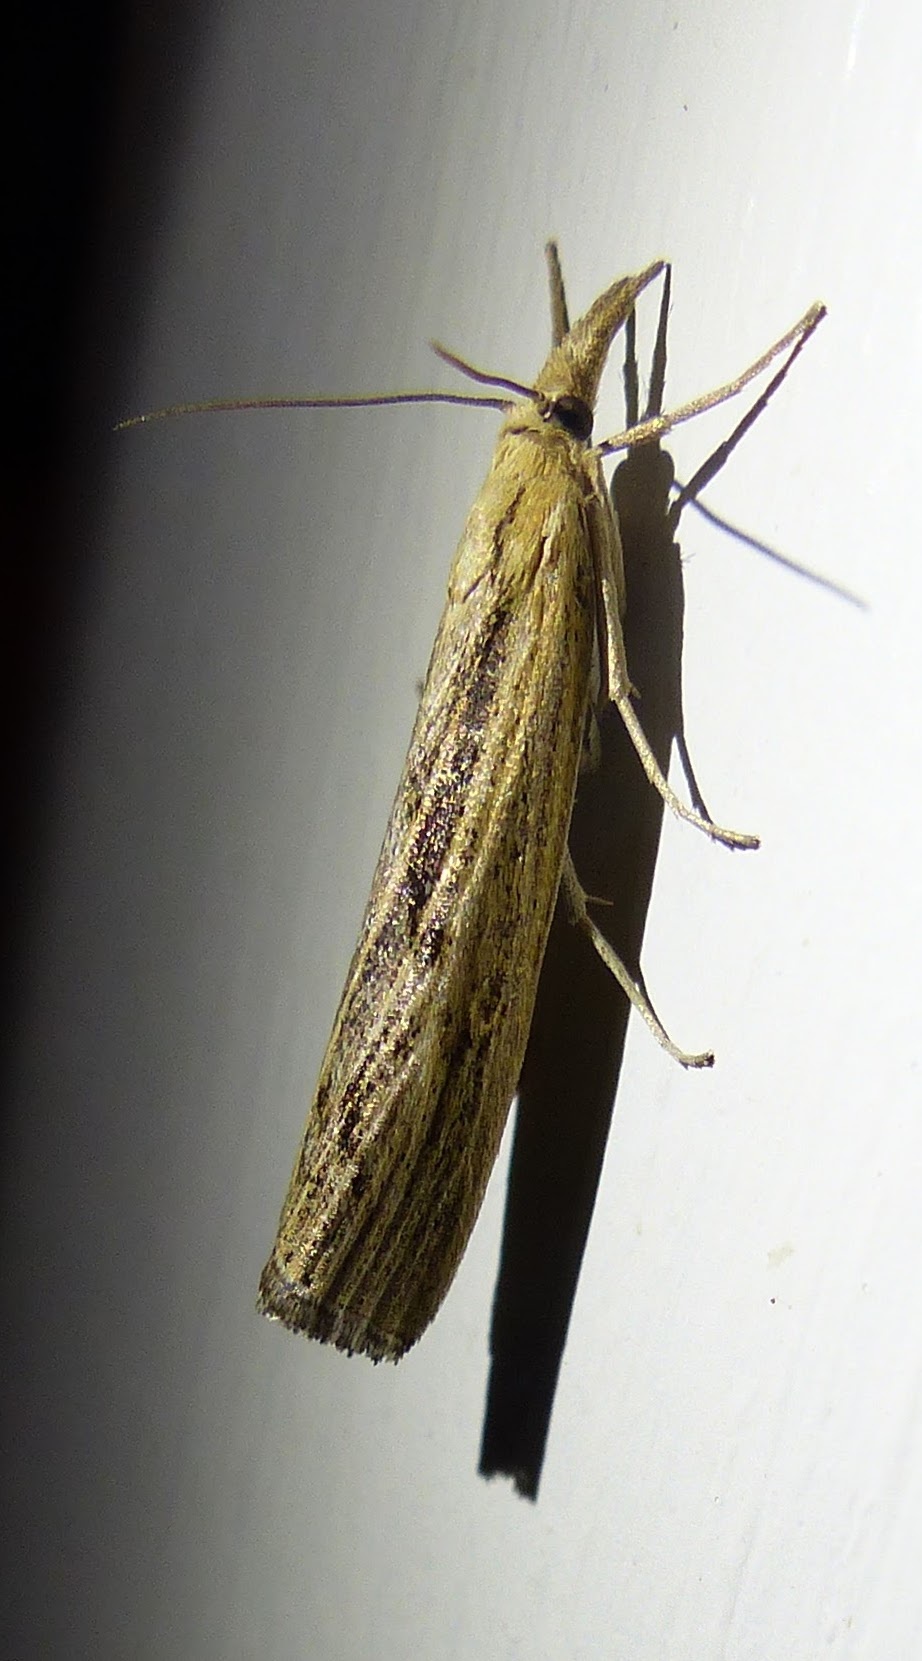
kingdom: Animalia
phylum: Arthropoda
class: Insecta
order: Lepidoptera
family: Crambidae
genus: Pediasia
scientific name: Pediasia trisecta
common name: Sod webworm moth
